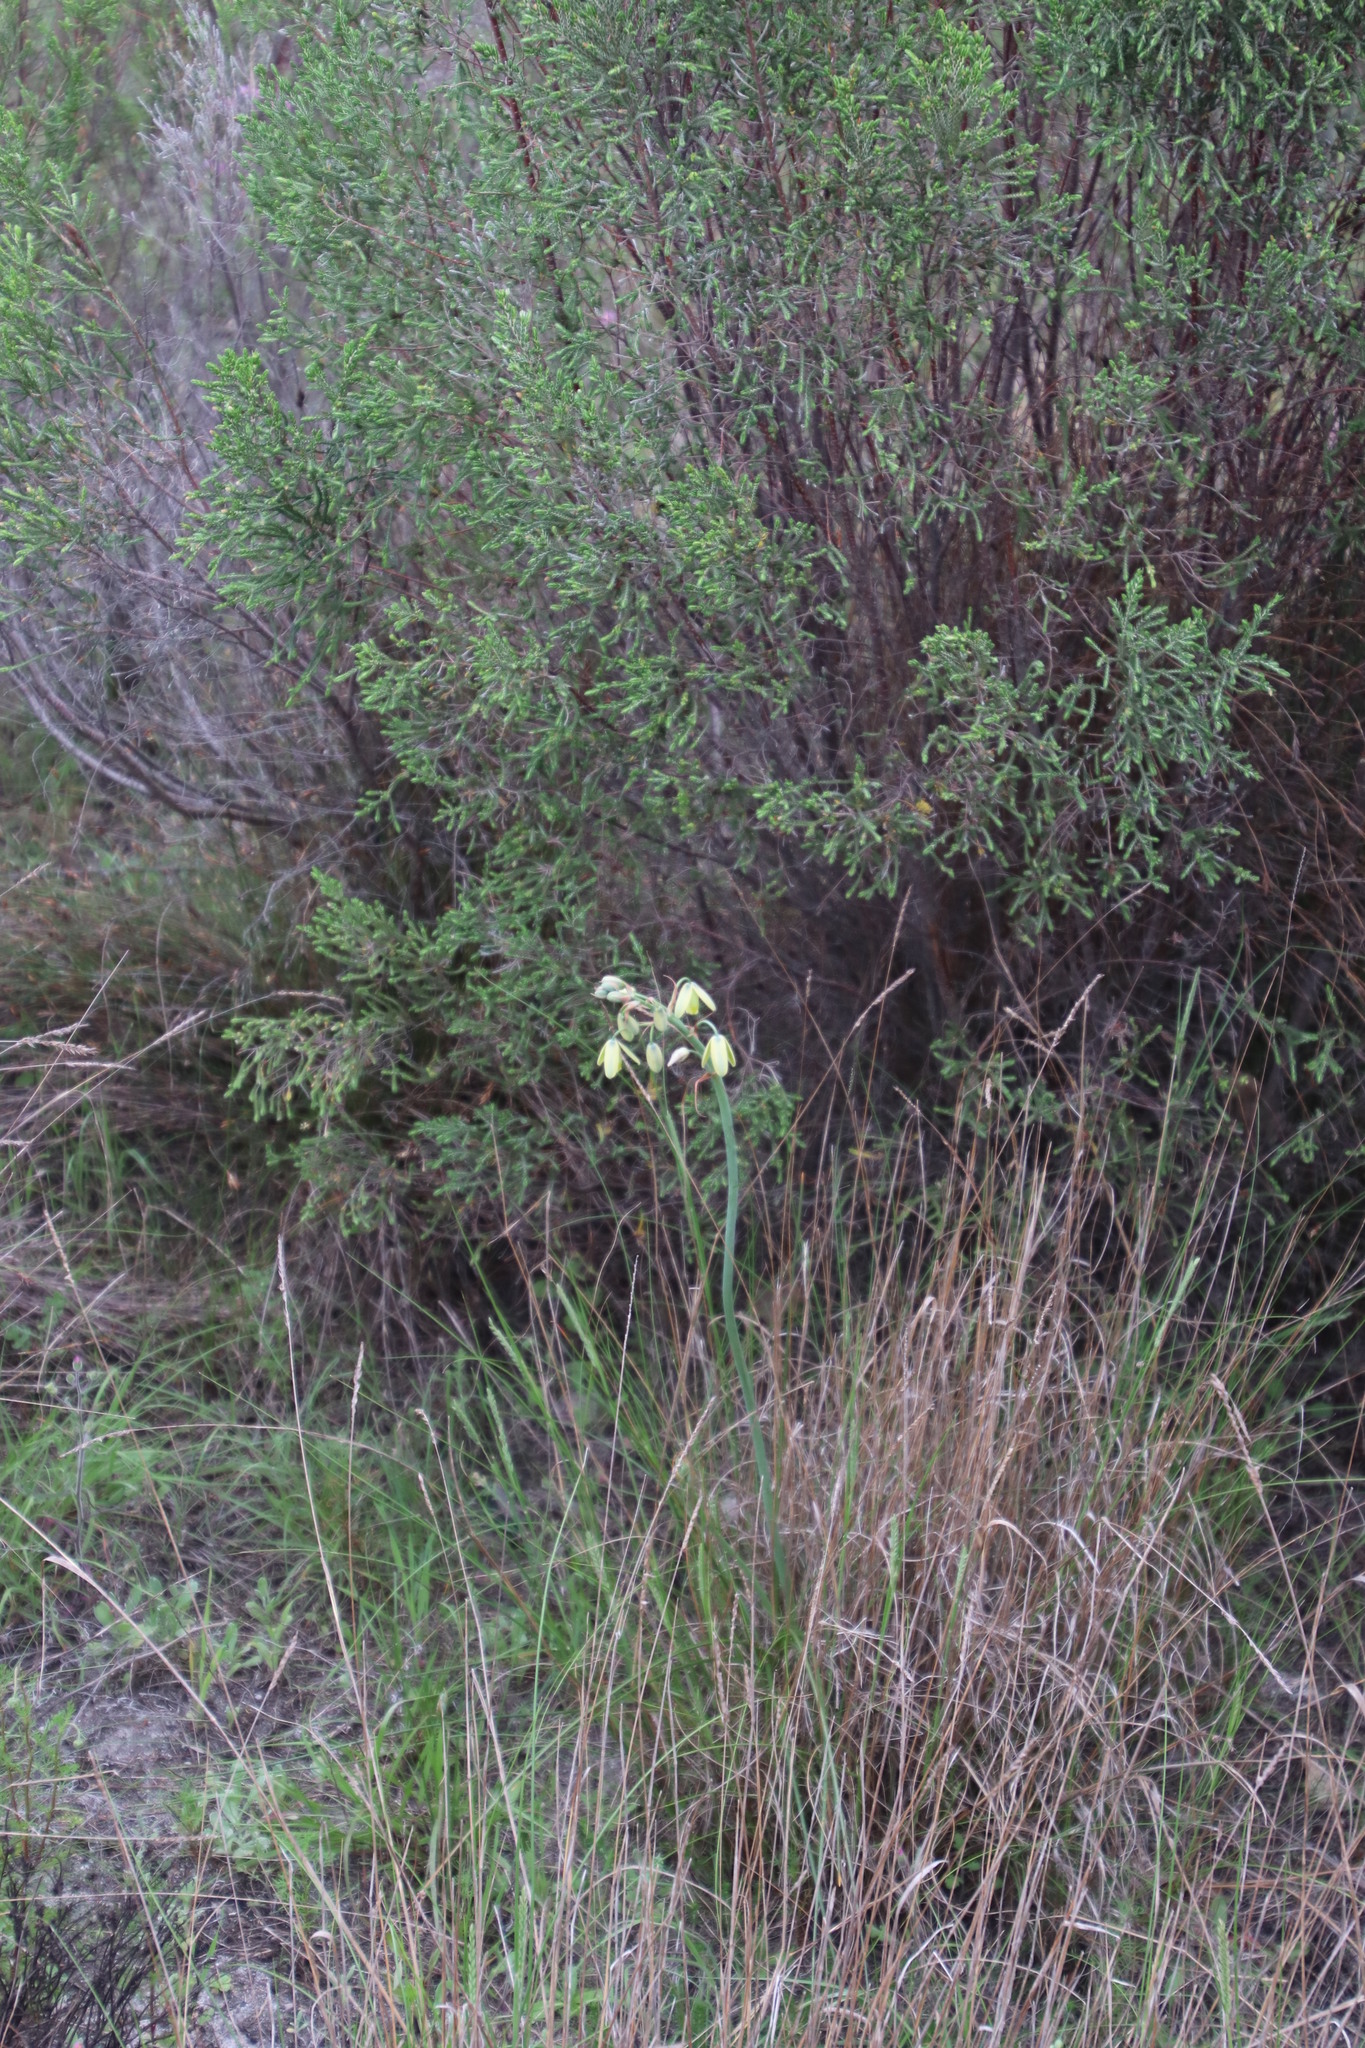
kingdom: Plantae
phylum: Tracheophyta
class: Liliopsida
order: Asparagales
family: Asparagaceae
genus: Albuca
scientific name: Albuca cooperi
